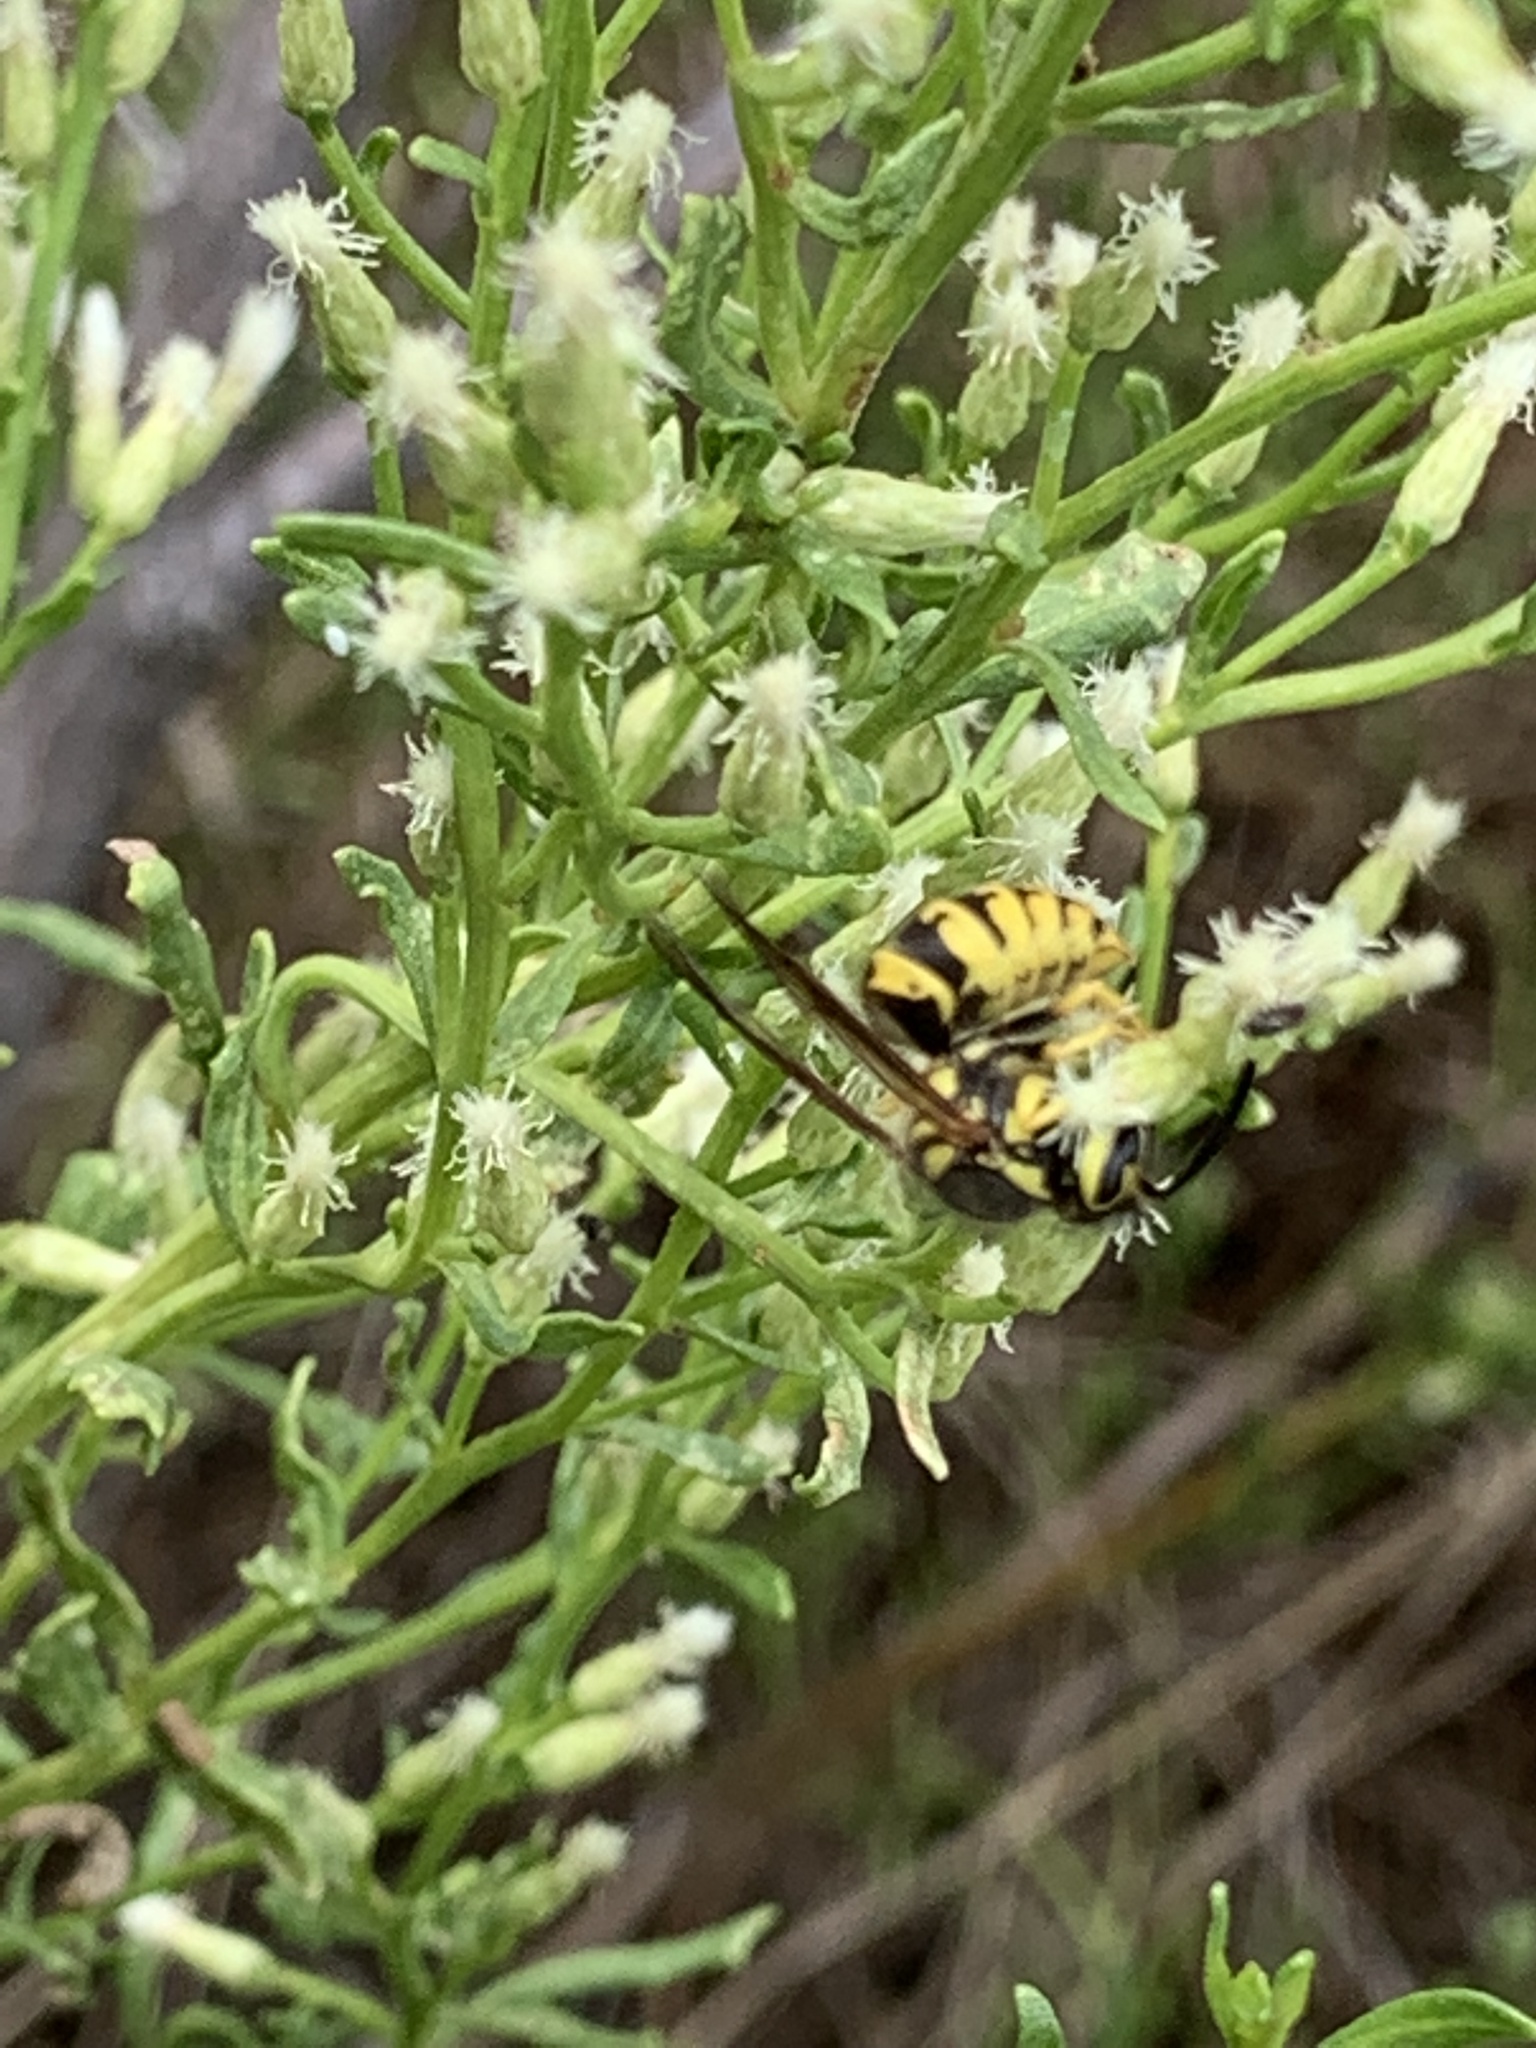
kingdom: Animalia
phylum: Arthropoda
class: Insecta
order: Hymenoptera
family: Vespidae
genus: Vespula
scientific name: Vespula pensylvanica
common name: Western yellowjacket
